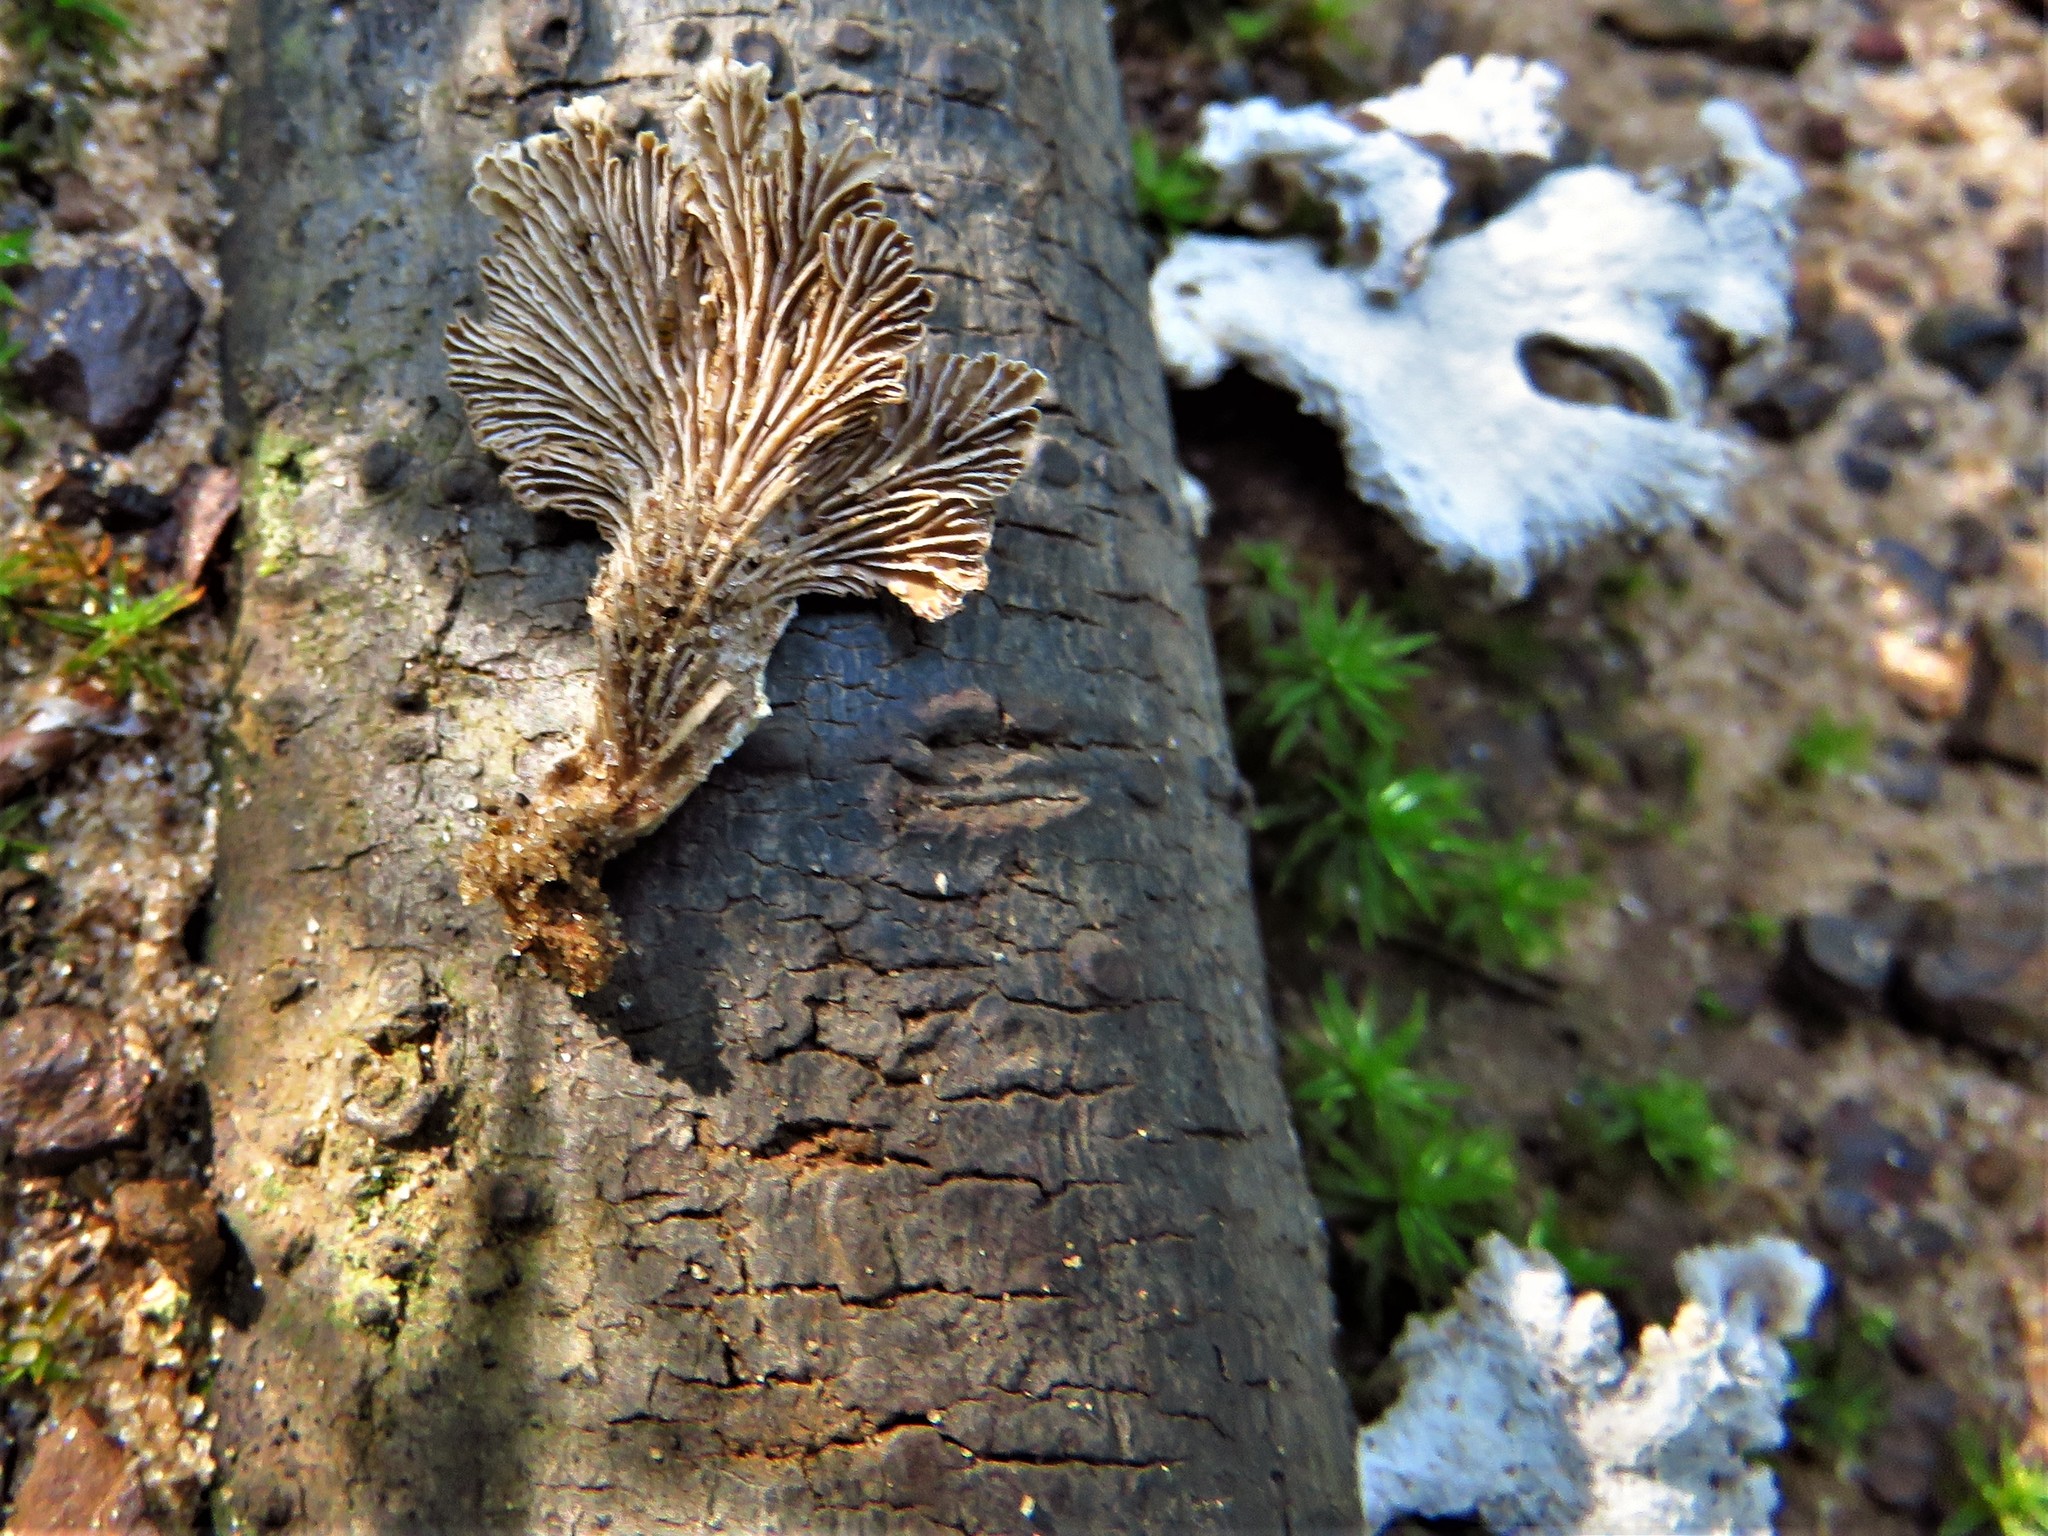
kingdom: Fungi
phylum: Basidiomycota
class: Agaricomycetes
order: Agaricales
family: Schizophyllaceae
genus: Schizophyllum
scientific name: Schizophyllum commune
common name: Common porecrust
